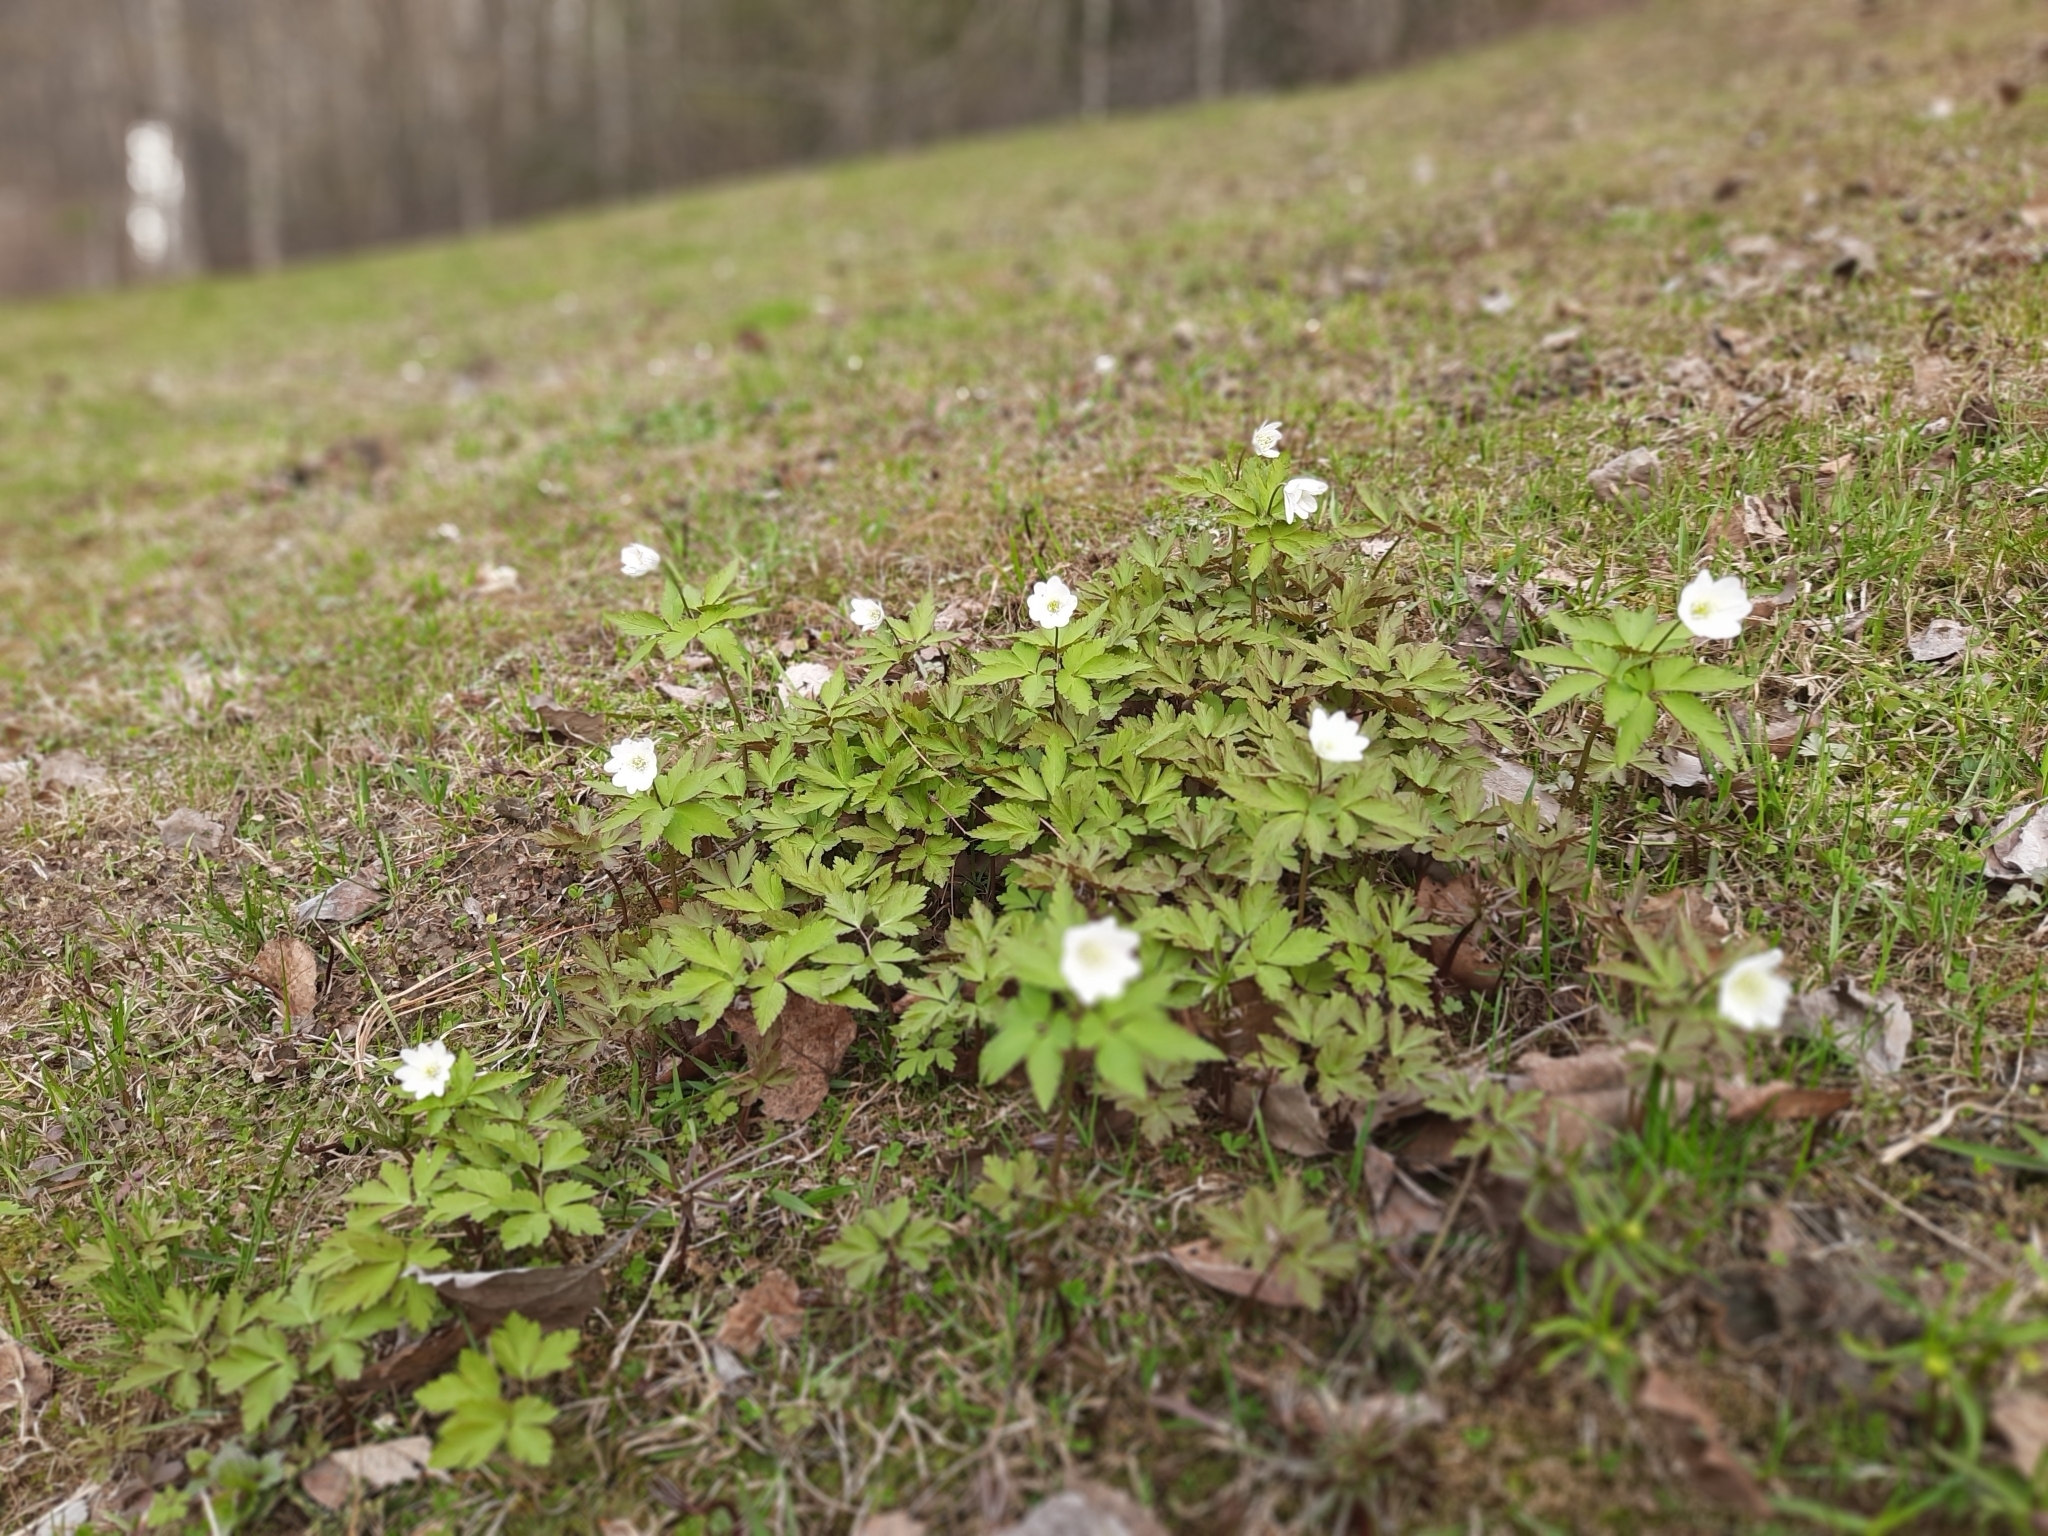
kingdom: Plantae
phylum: Tracheophyta
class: Magnoliopsida
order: Ranunculales
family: Ranunculaceae
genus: Anemone
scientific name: Anemone altaica
